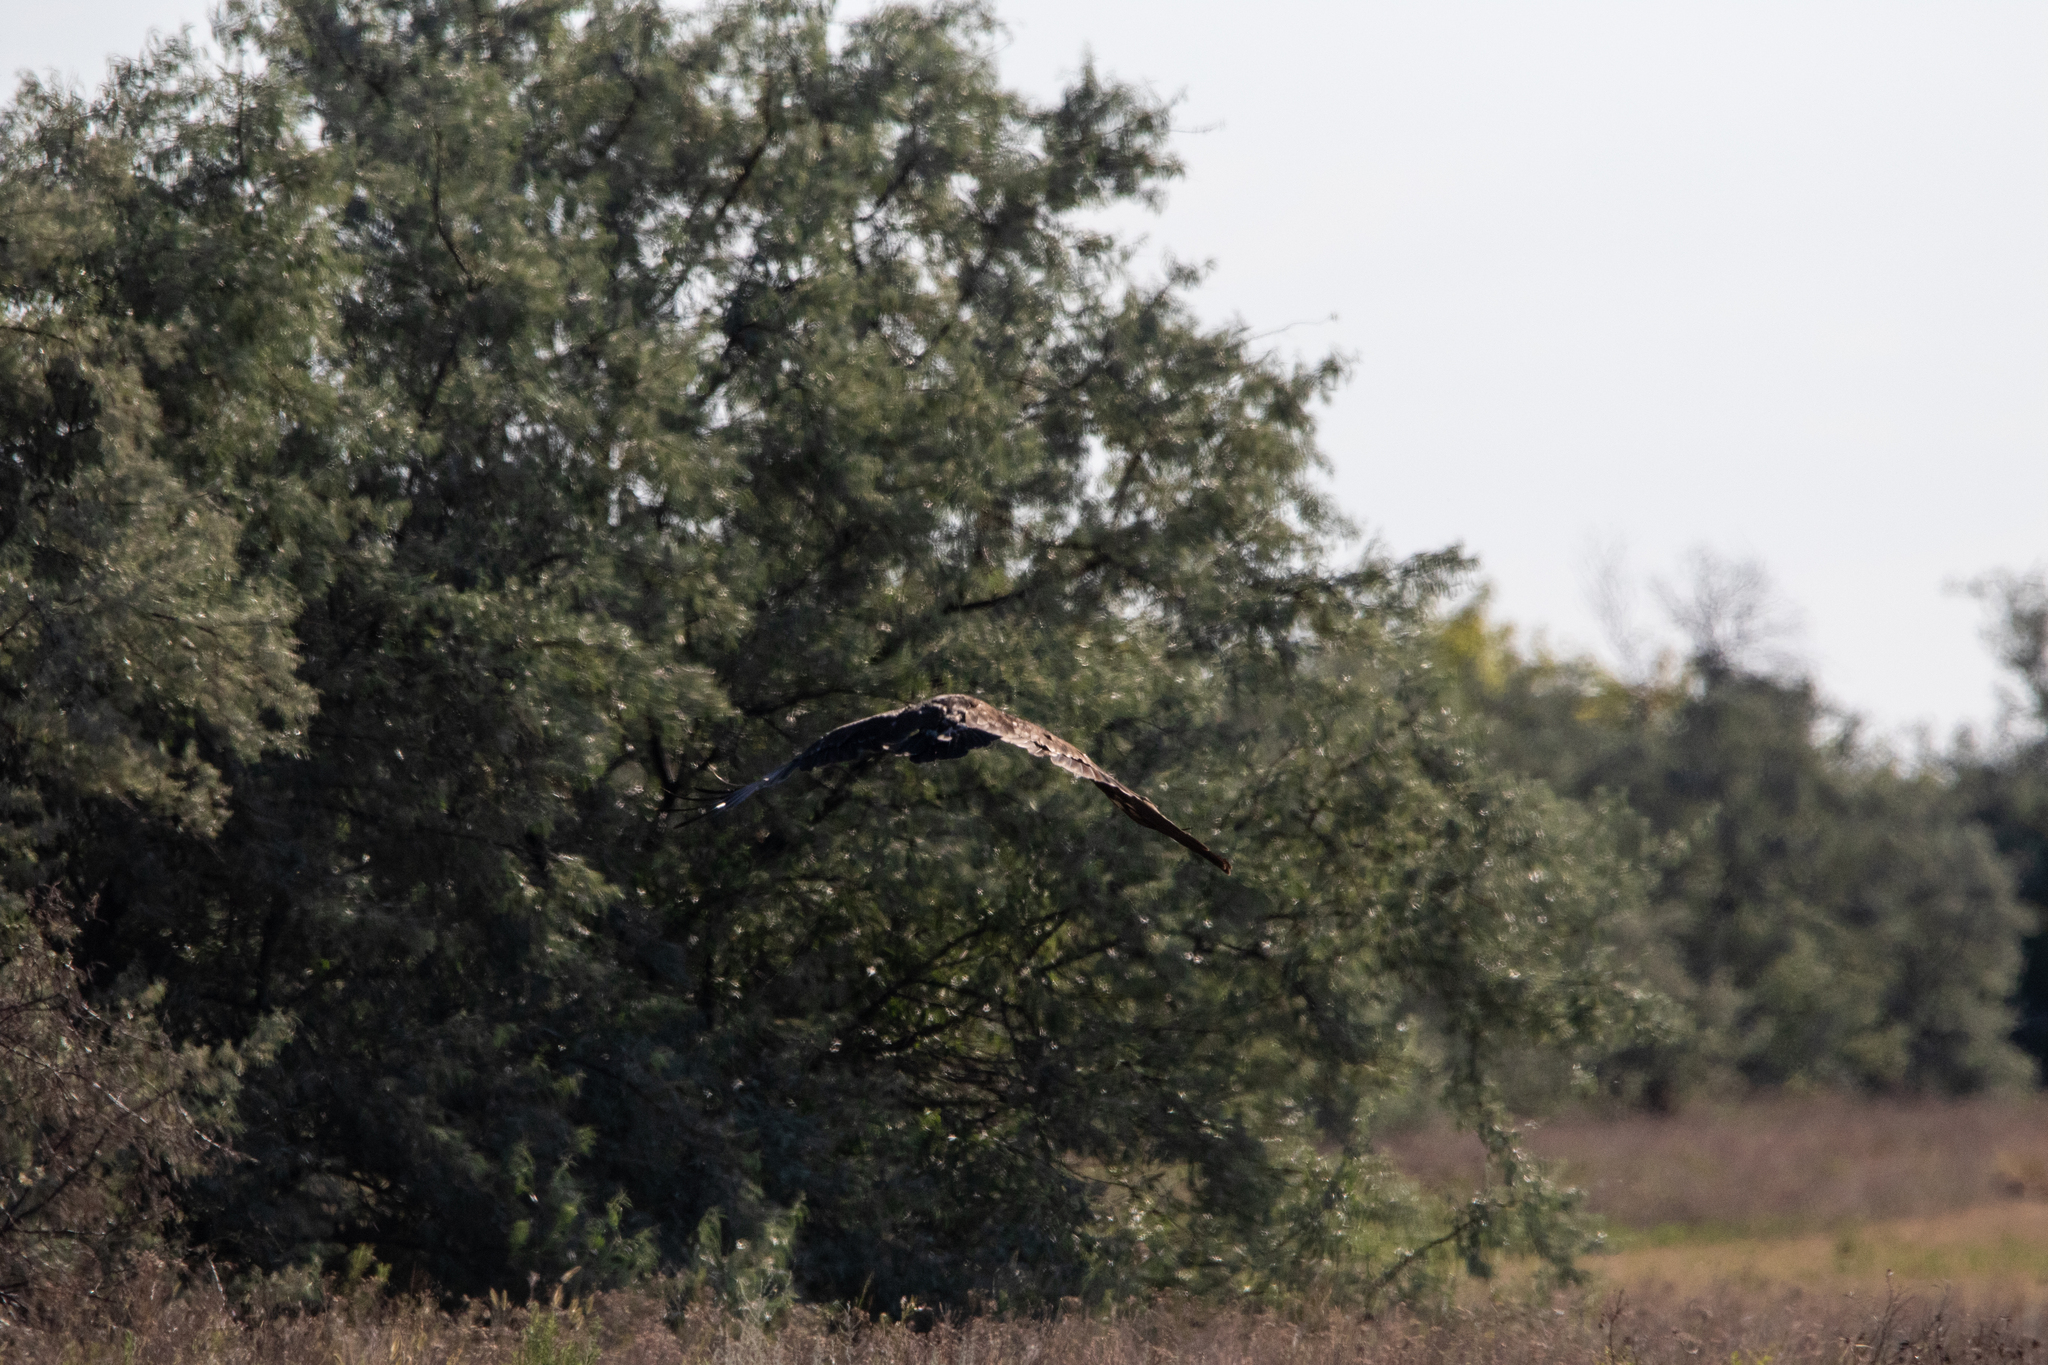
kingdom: Animalia
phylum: Chordata
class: Aves
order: Accipitriformes
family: Accipitridae
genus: Aquila
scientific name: Aquila clanga
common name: Greater spotted eagle
